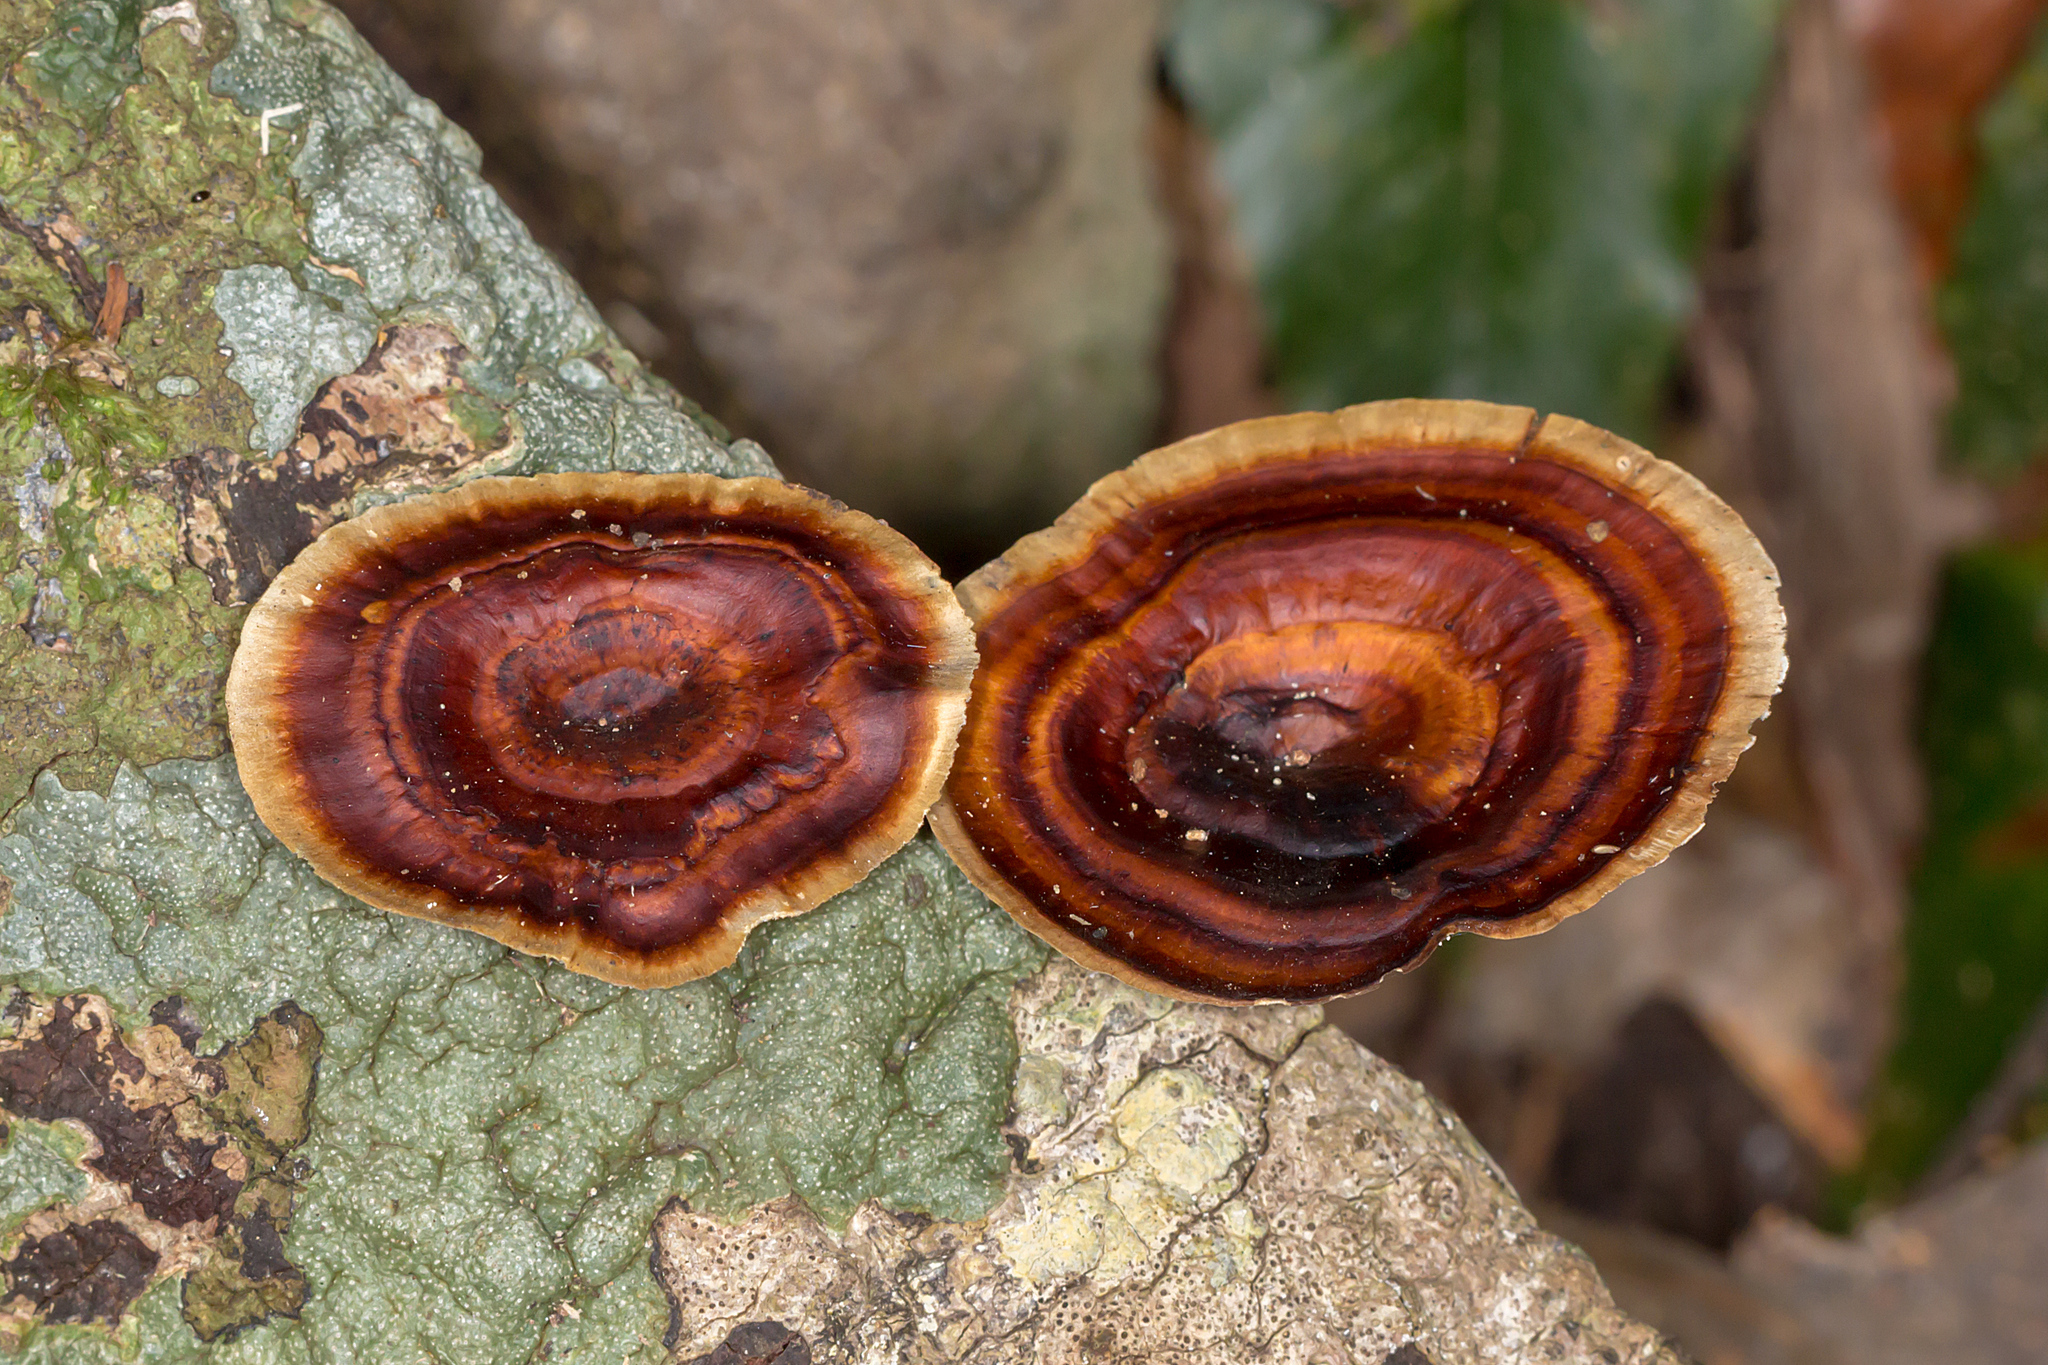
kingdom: Fungi
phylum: Basidiomycota
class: Agaricomycetes
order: Polyporales
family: Polyporaceae
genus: Microporus
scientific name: Microporus xanthopus
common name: Yellow-stemmed micropore
